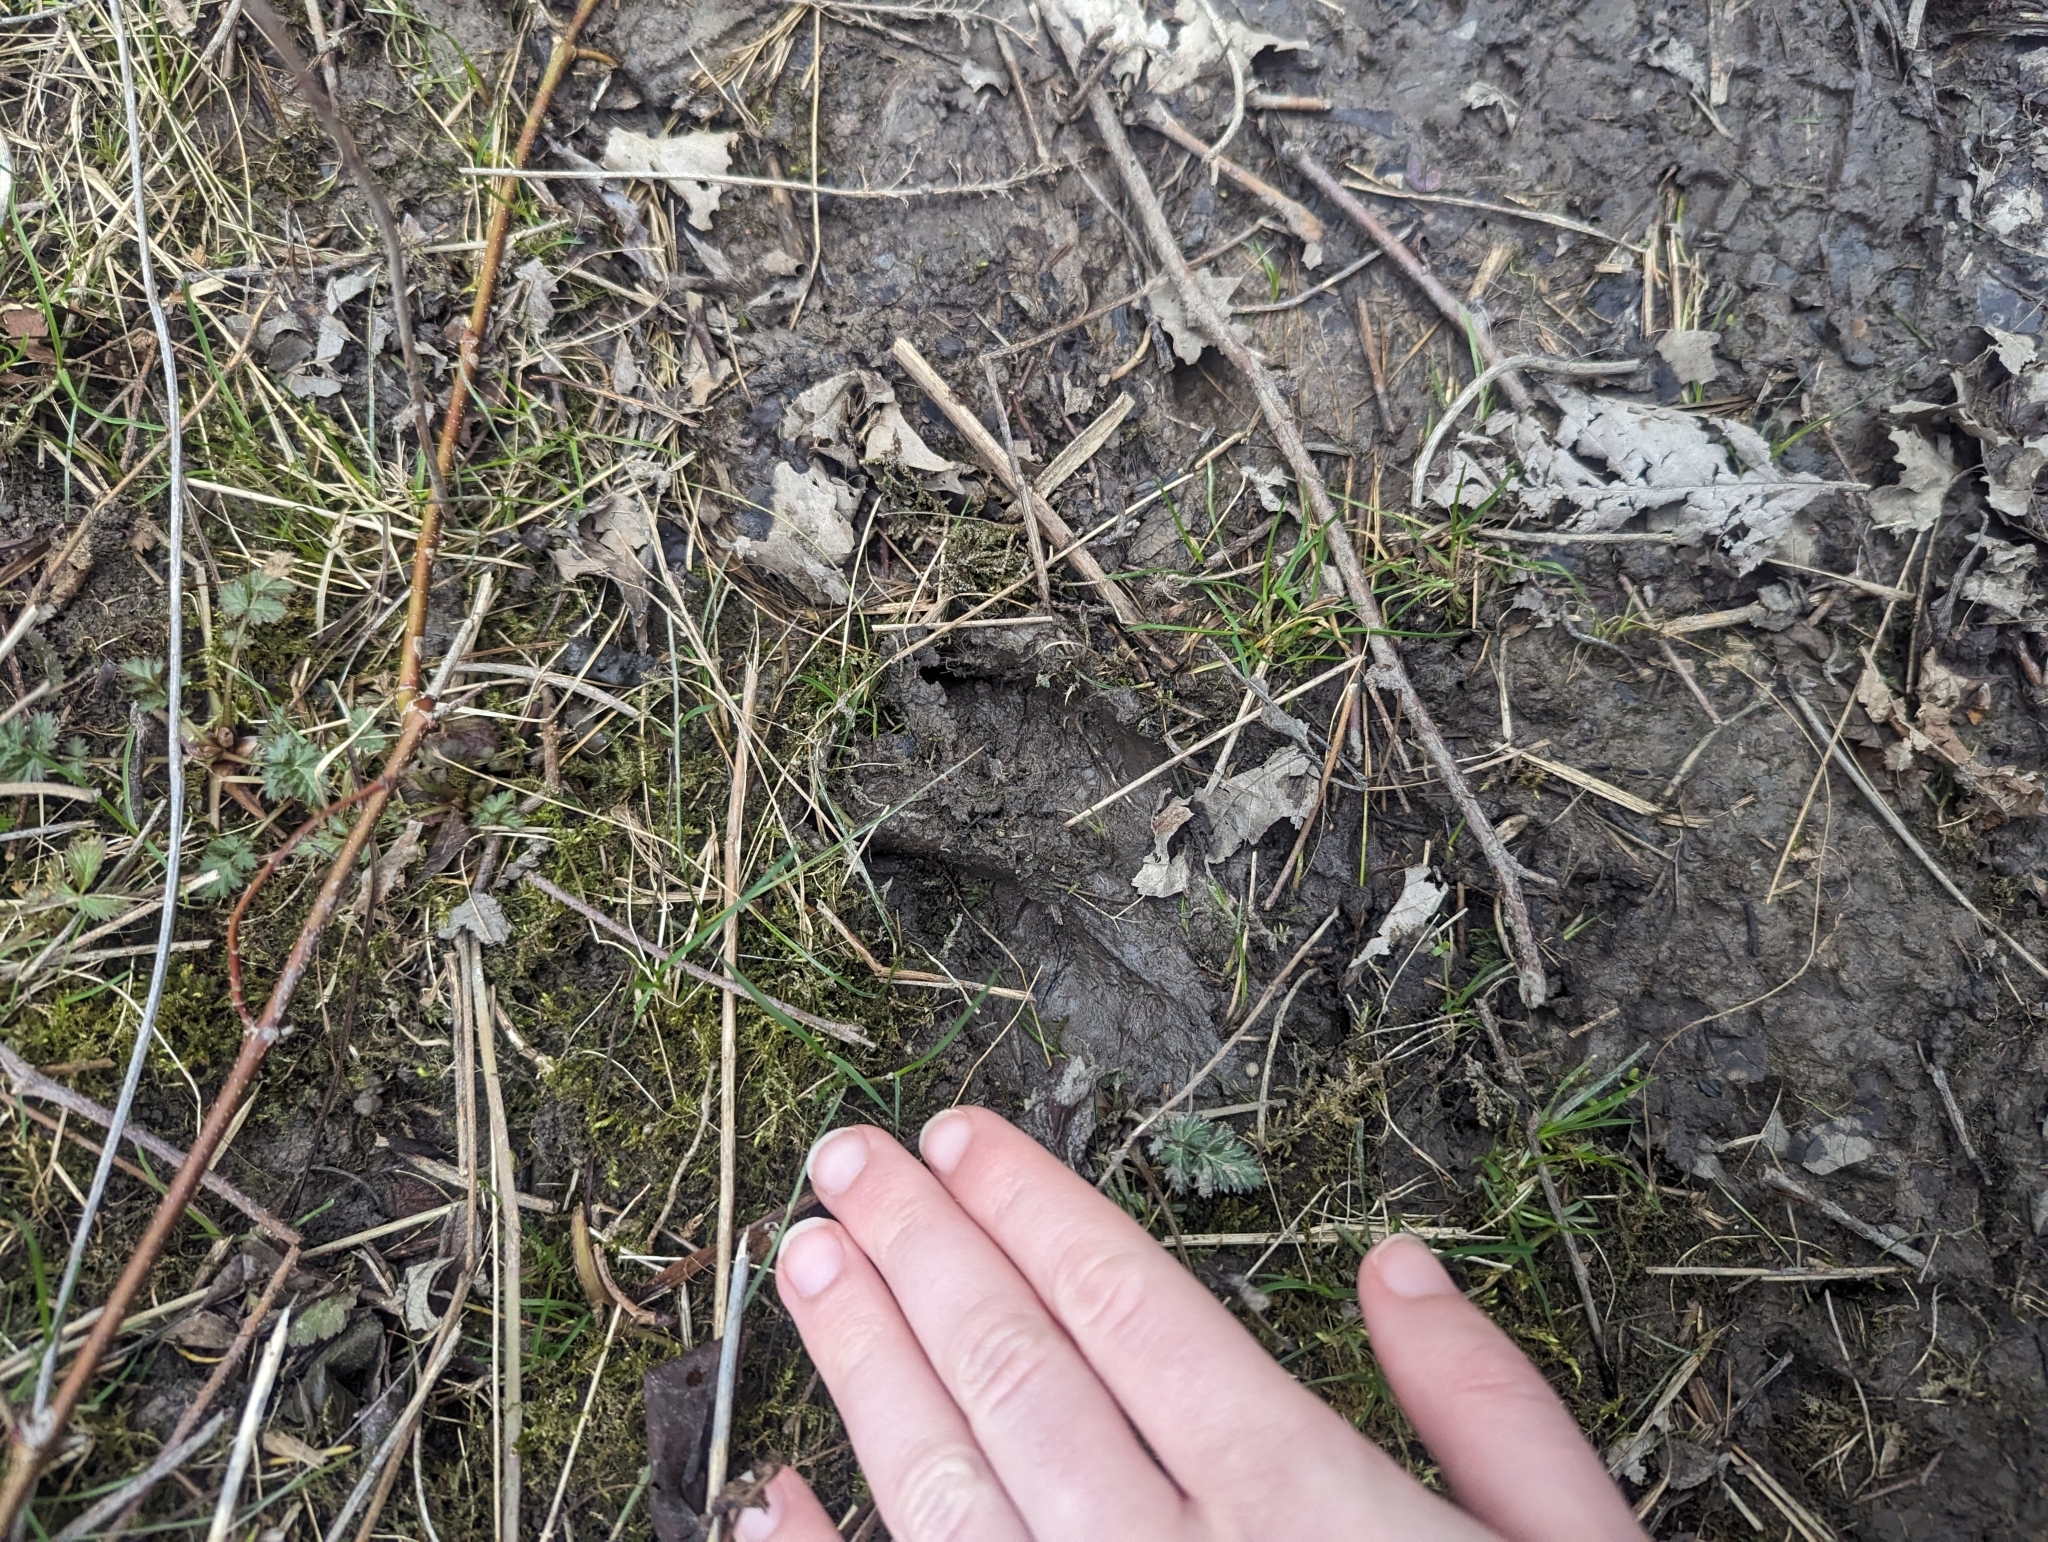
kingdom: Animalia
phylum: Chordata
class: Mammalia
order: Artiodactyla
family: Cervidae
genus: Odocoileus
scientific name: Odocoileus virginianus
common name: White-tailed deer
